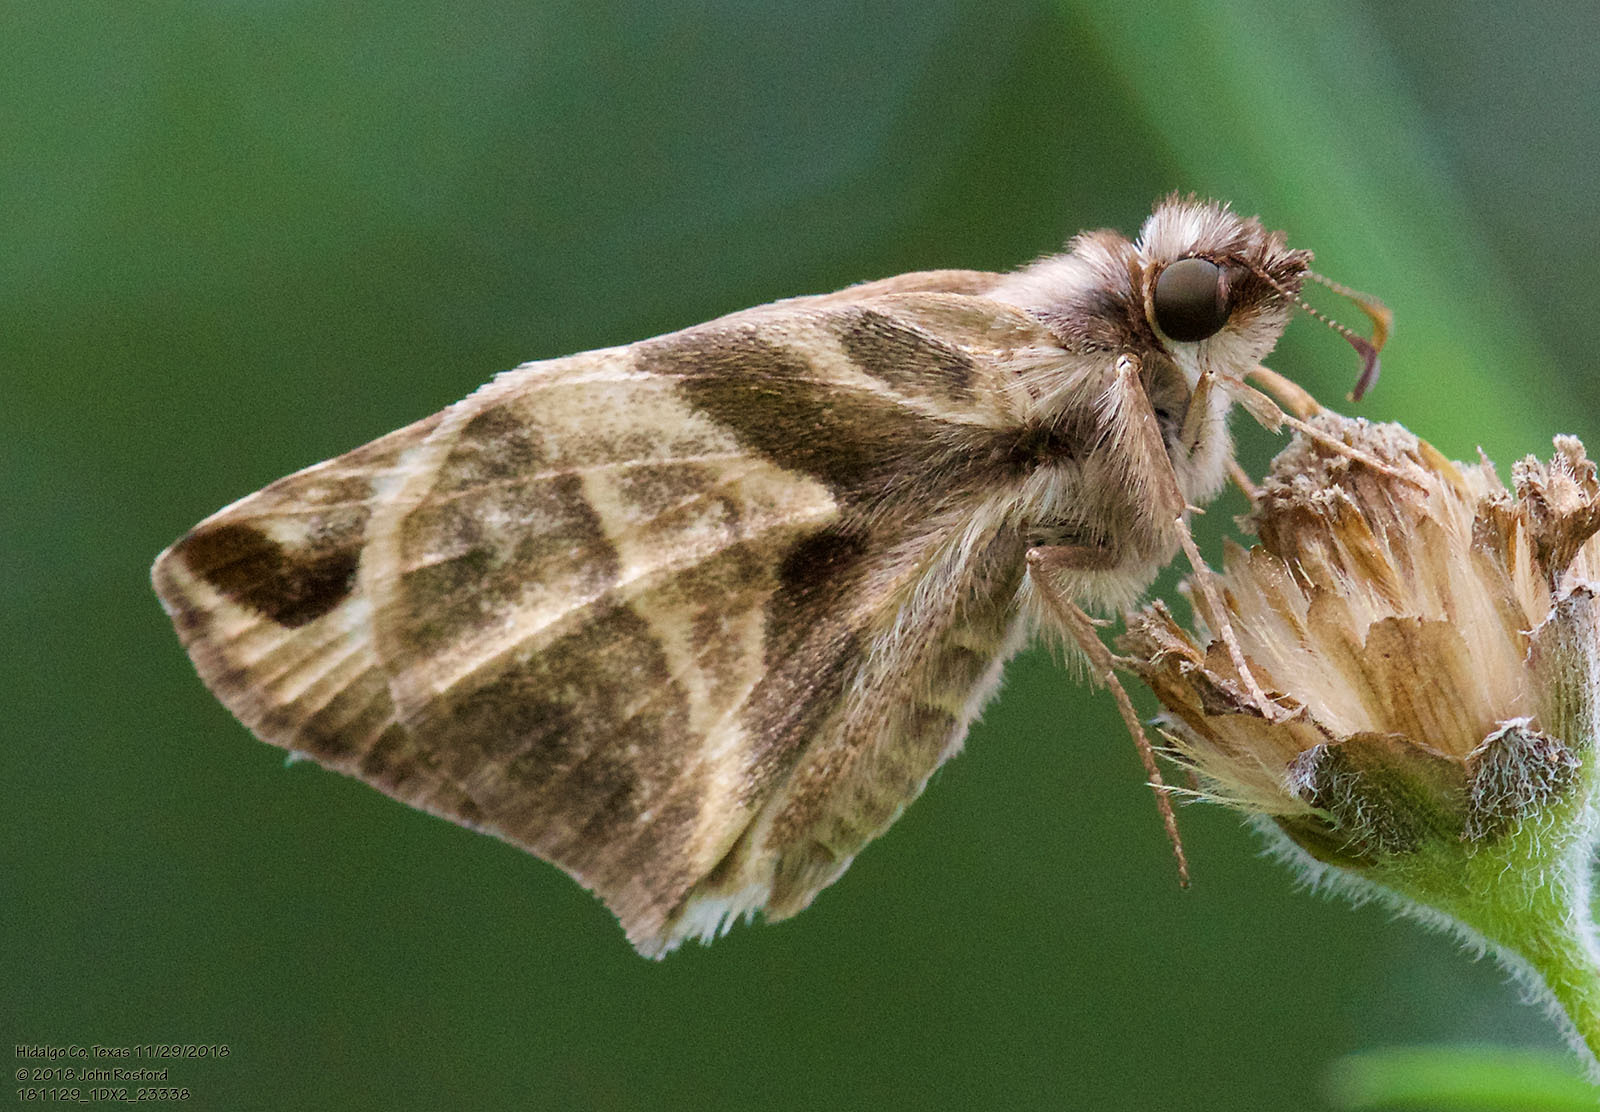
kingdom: Animalia
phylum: Arthropoda
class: Insecta
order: Lepidoptera
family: Hesperiidae
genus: Heliopetes
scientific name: Heliopetes laviana
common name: Laviana white-skipper
